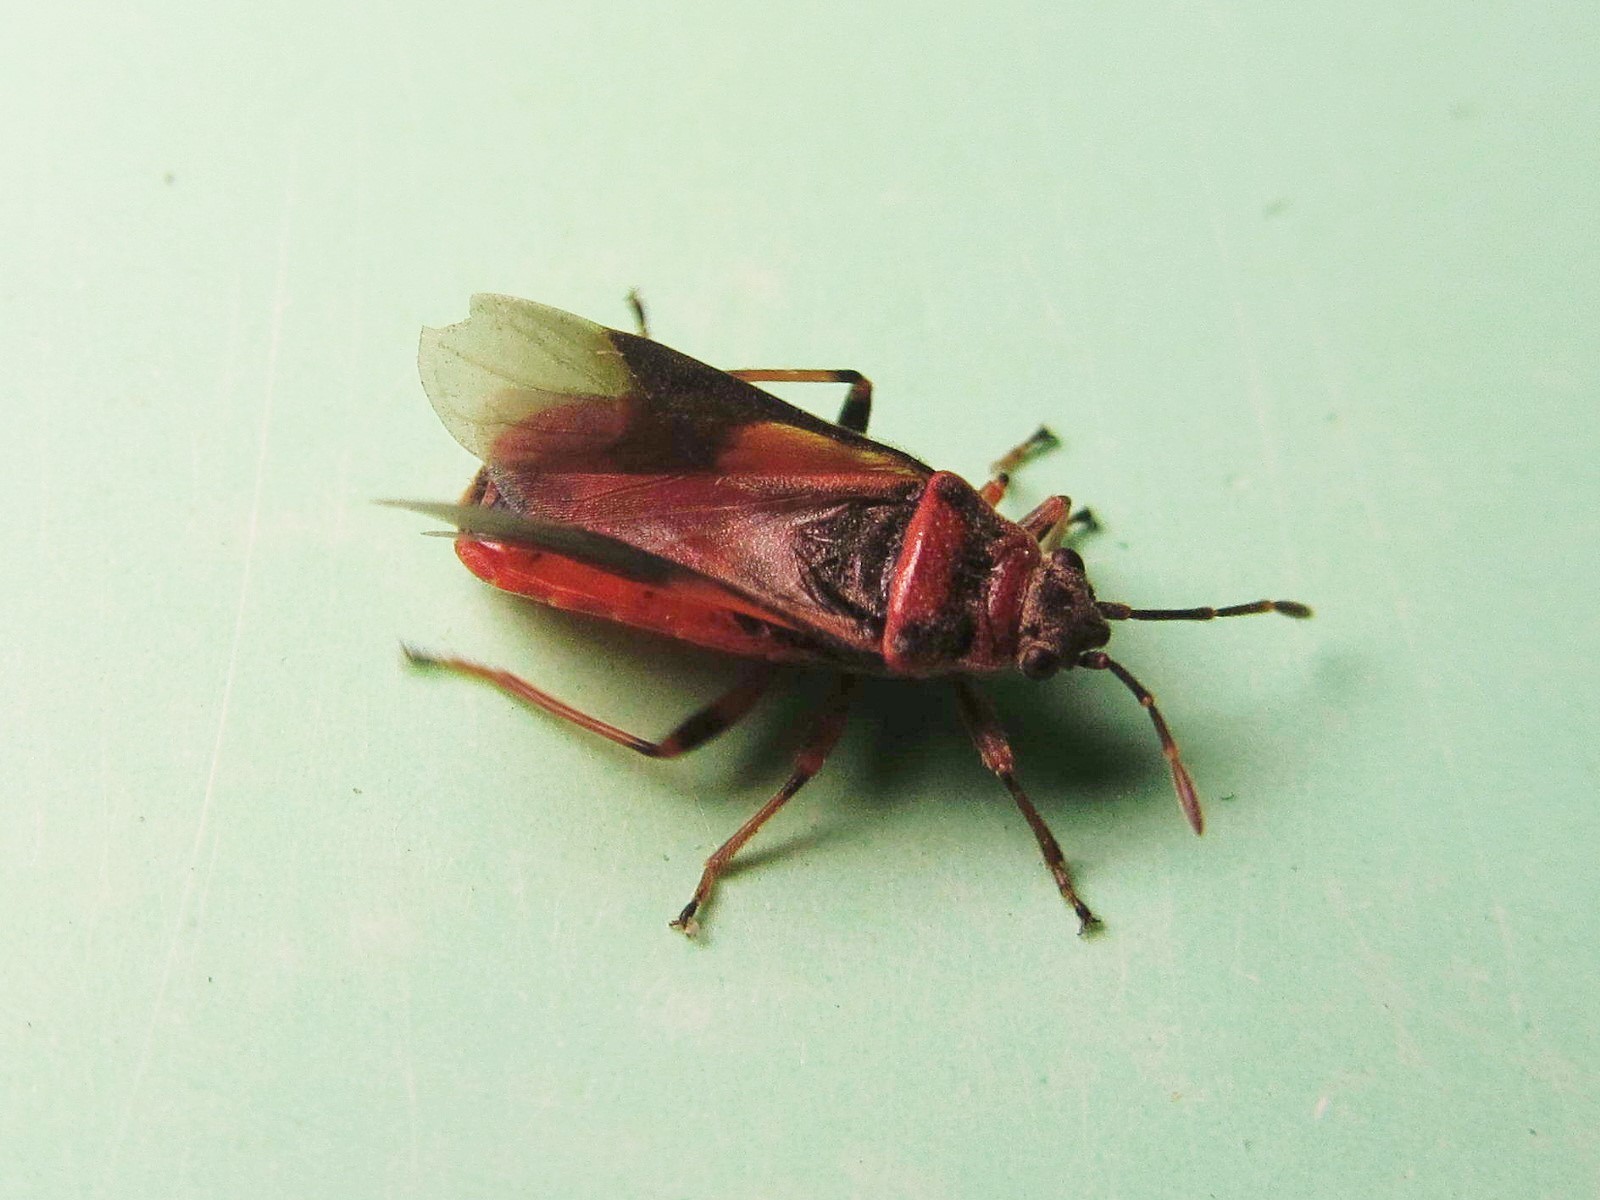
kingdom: Animalia
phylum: Arthropoda
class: Insecta
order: Hemiptera
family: Lygaeidae
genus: Arocatus
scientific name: Arocatus melanocephalus
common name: Lygaeid bug
